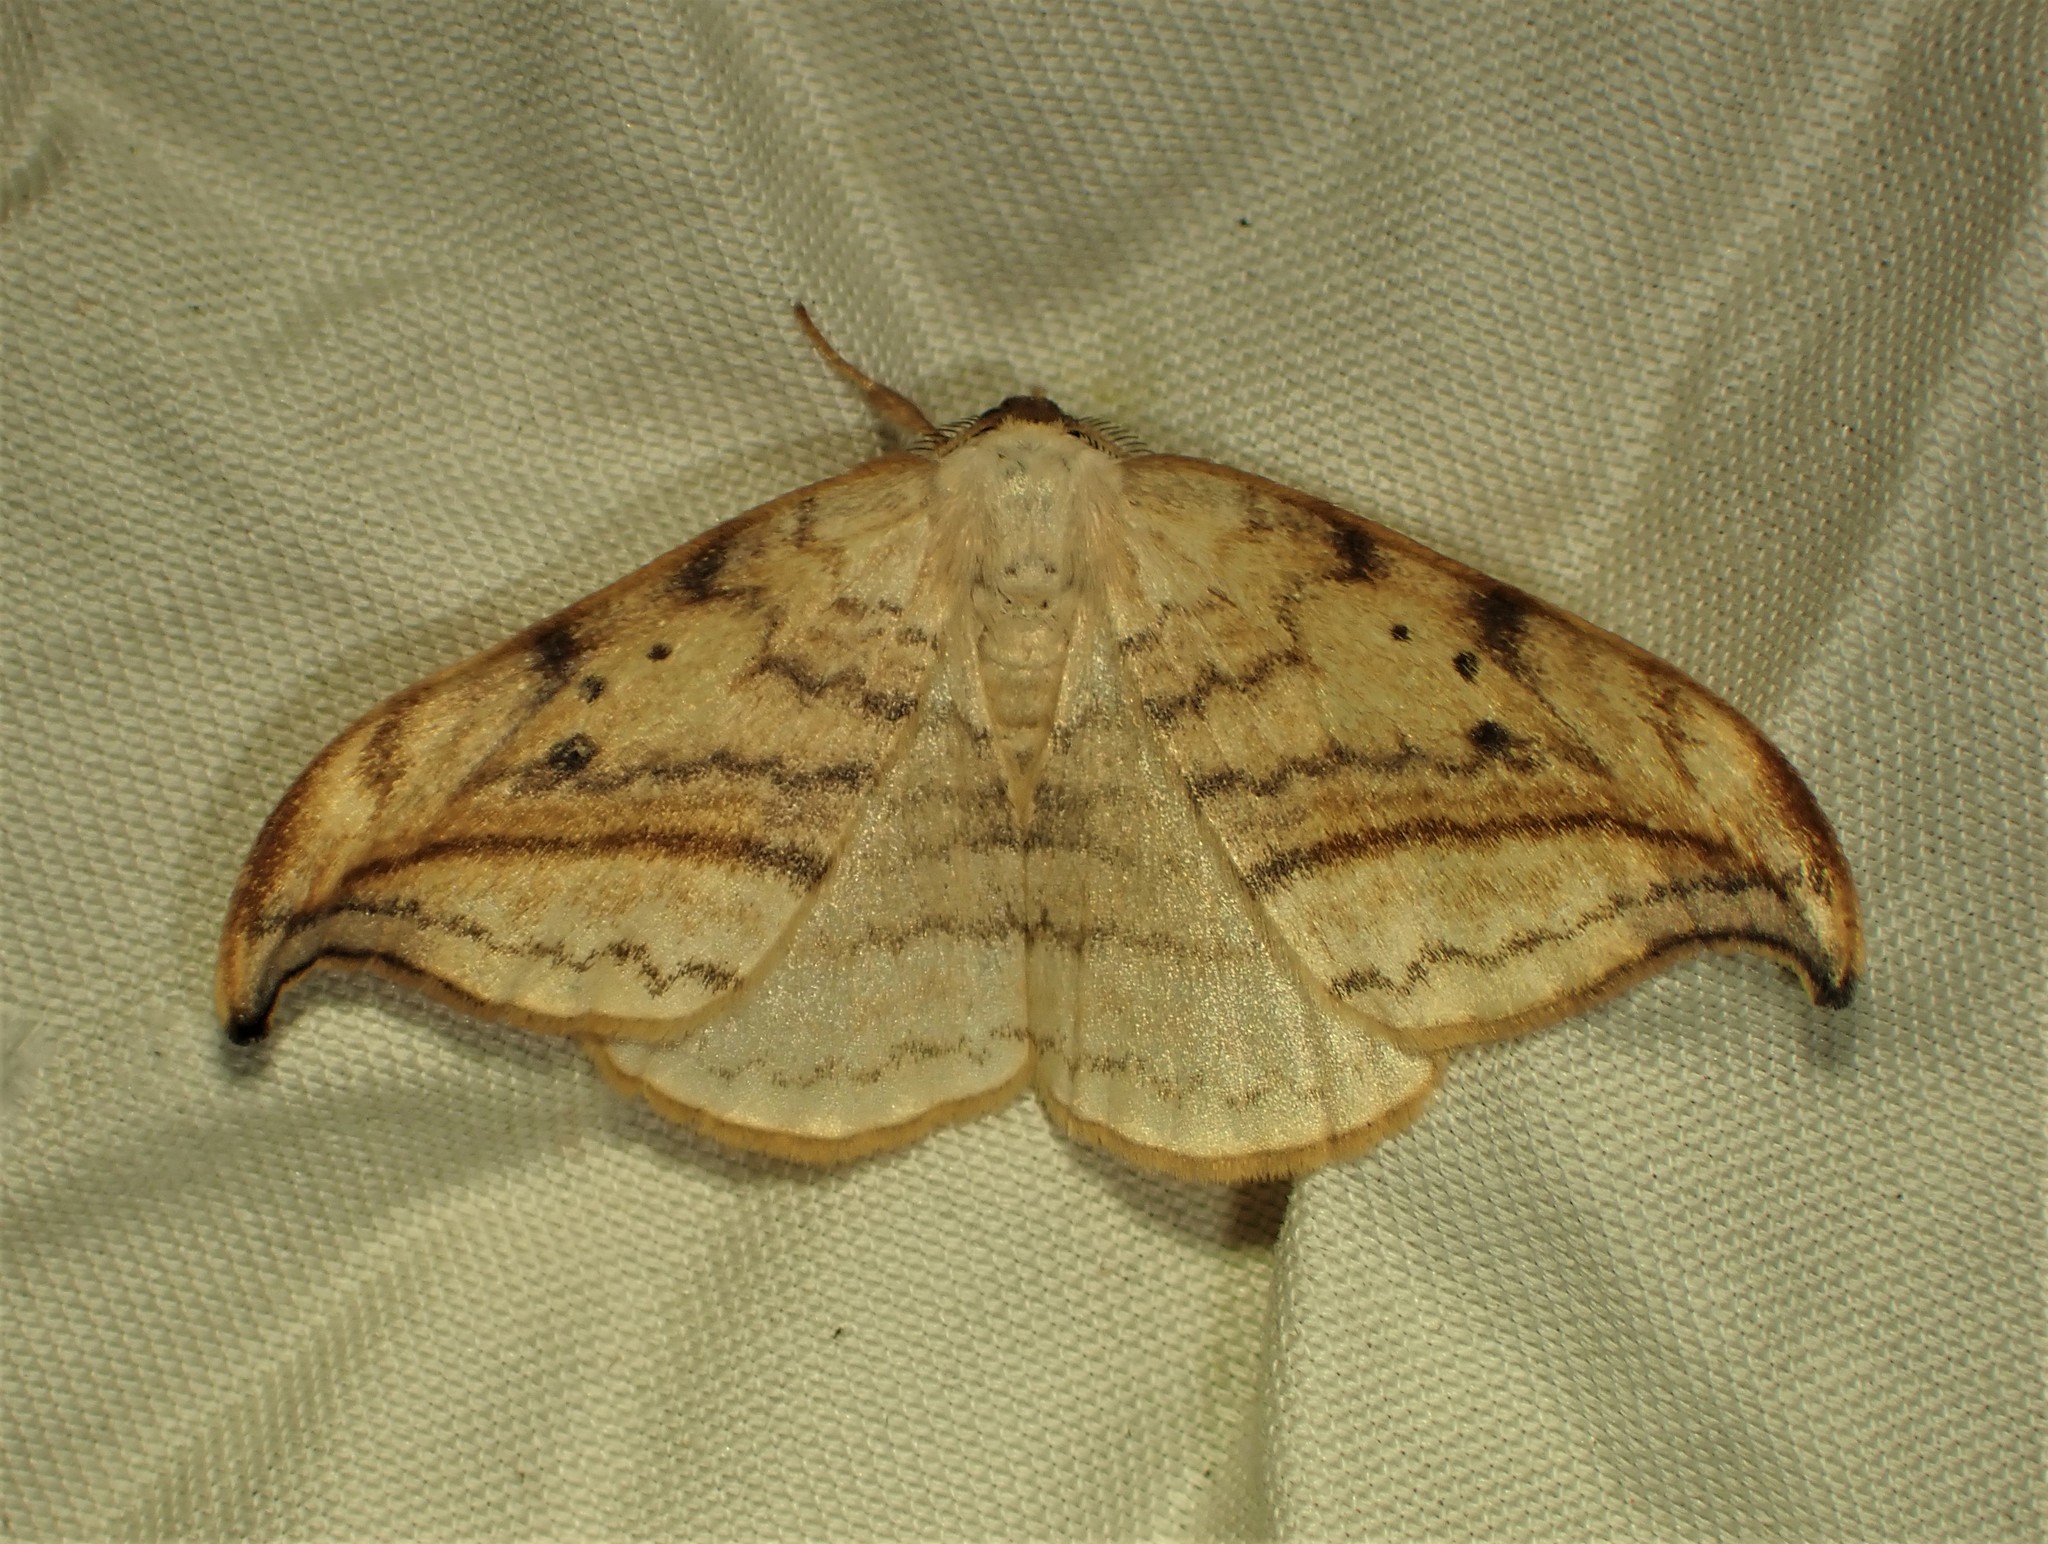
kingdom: Animalia
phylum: Arthropoda
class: Insecta
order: Lepidoptera
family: Drepanidae
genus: Drepana
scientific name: Drepana arcuata
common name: Arched hooktip moth
